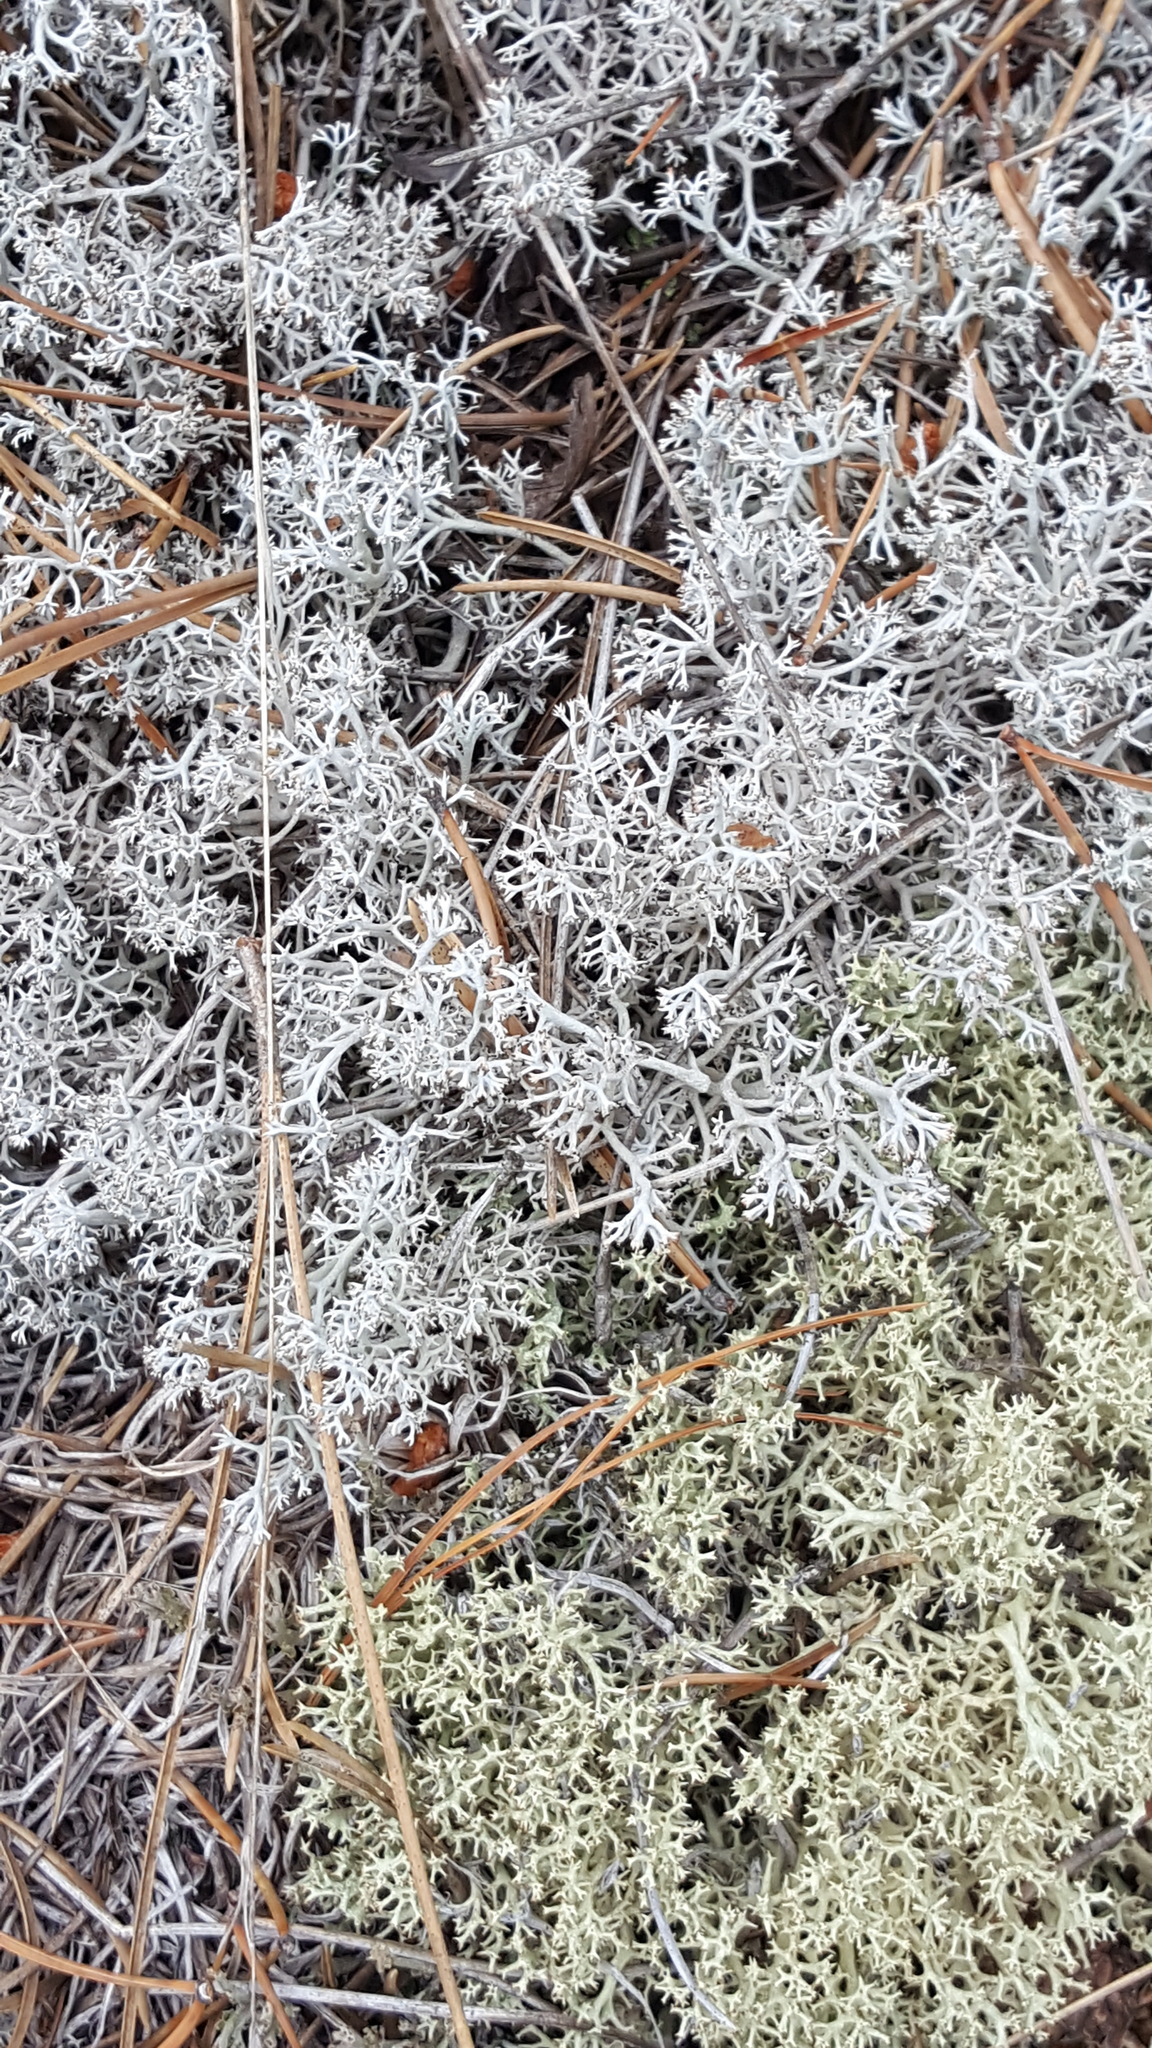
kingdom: Fungi
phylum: Ascomycota
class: Lecanoromycetes
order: Lecanorales
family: Cladoniaceae
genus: Cladonia
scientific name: Cladonia rangiferina
